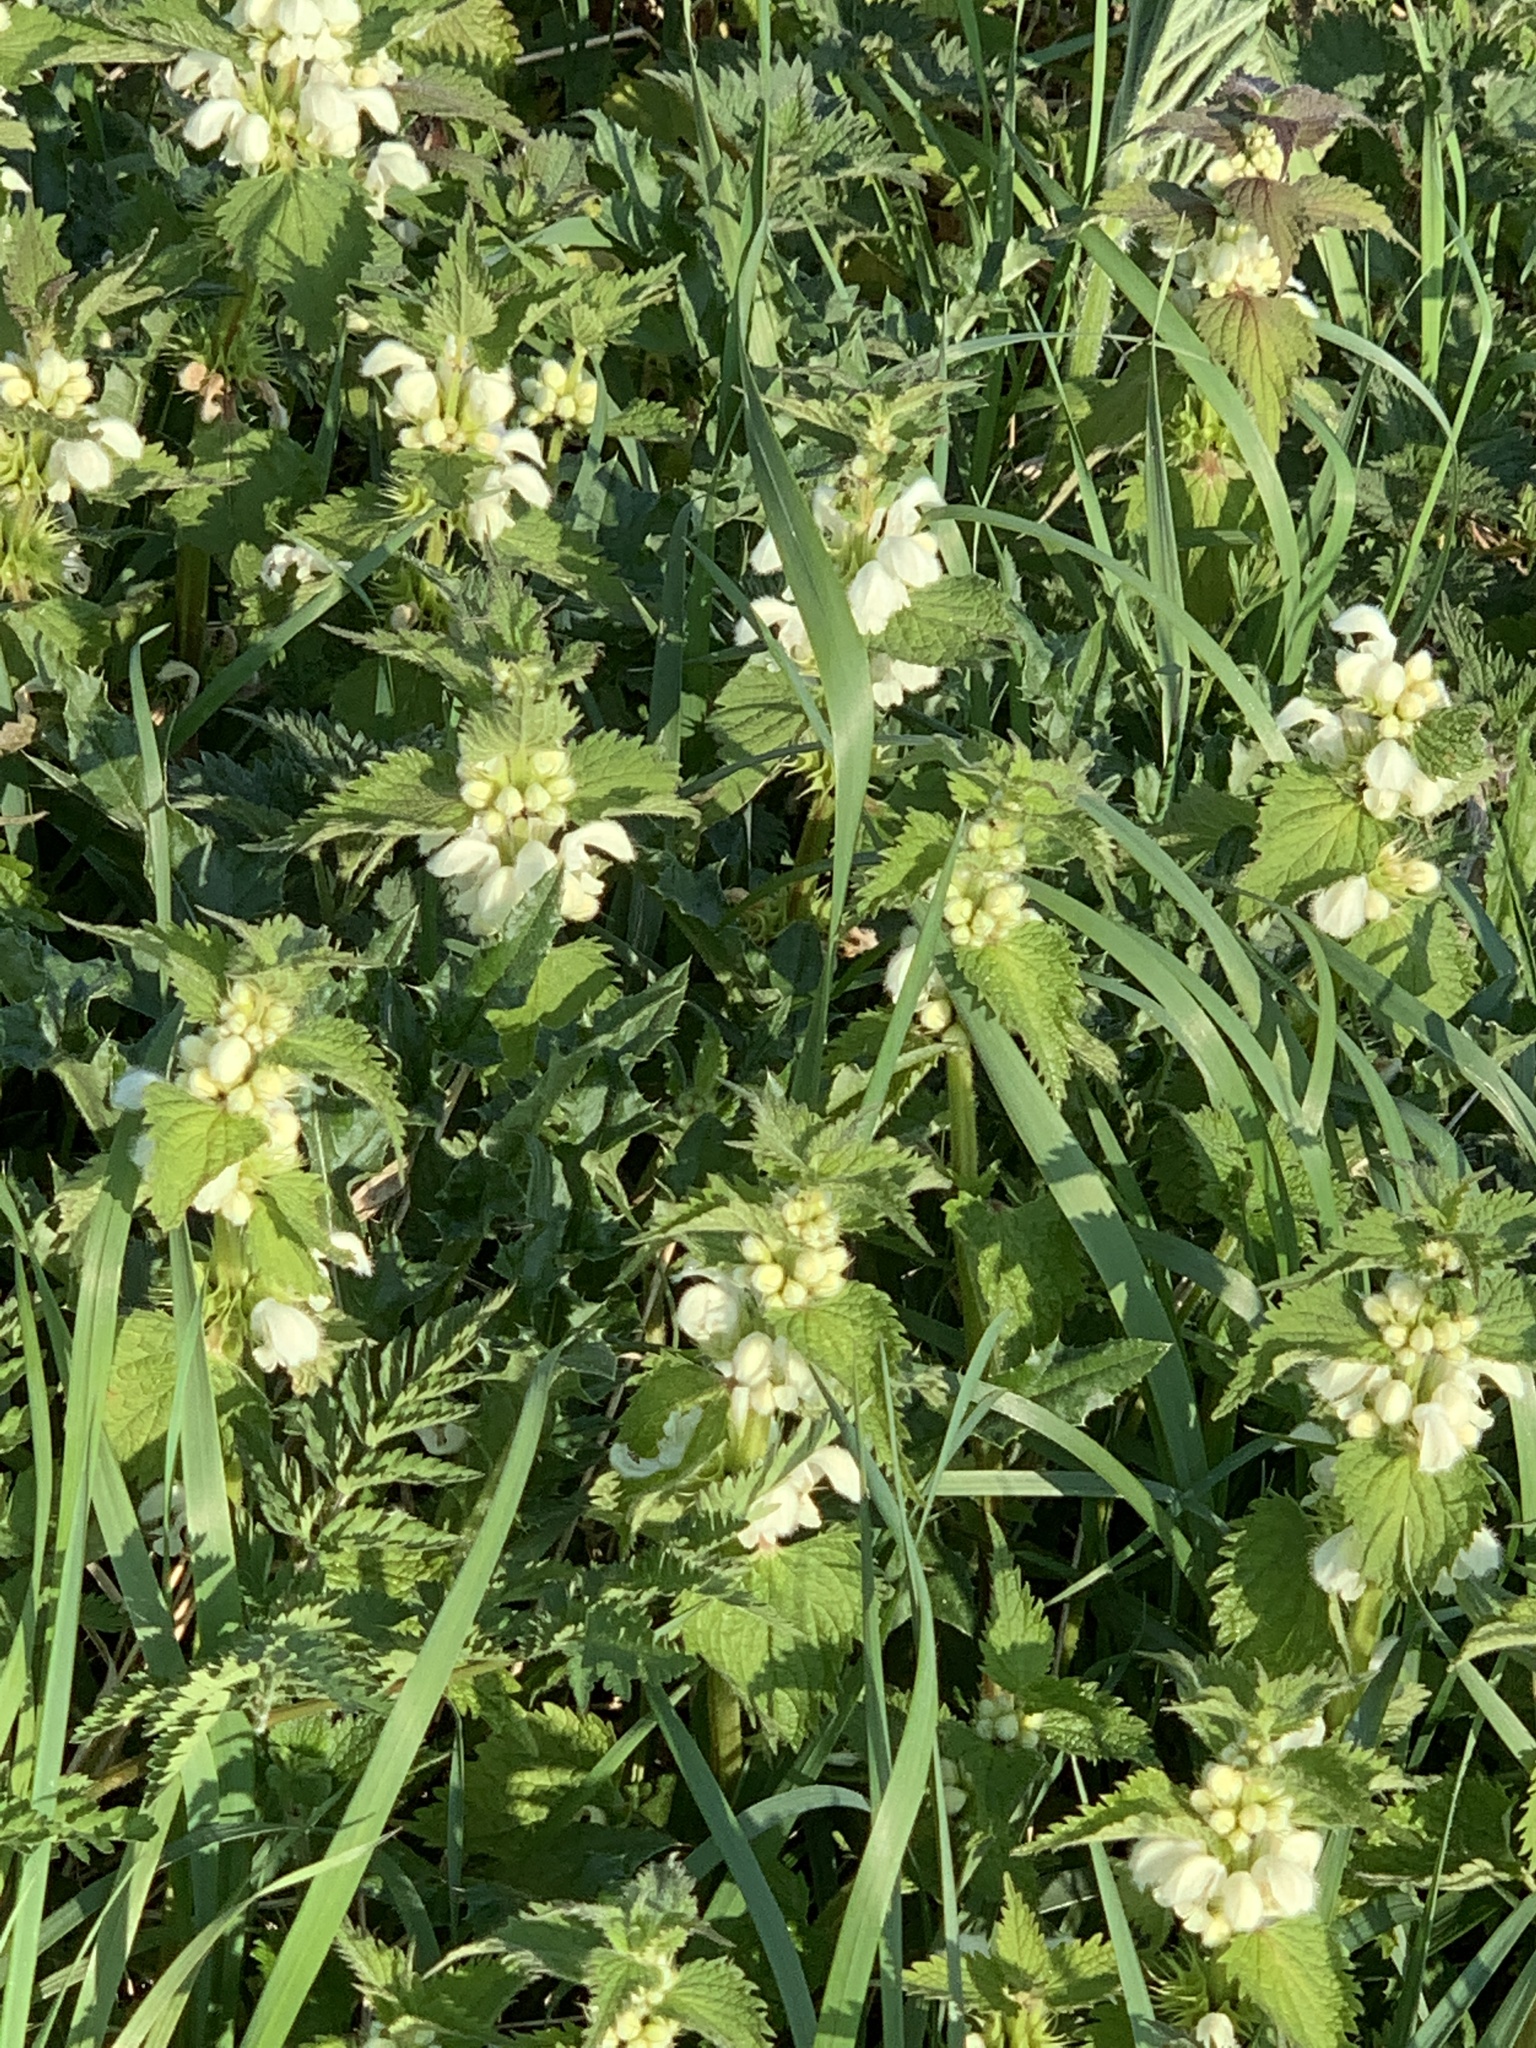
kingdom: Plantae
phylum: Tracheophyta
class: Magnoliopsida
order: Lamiales
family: Lamiaceae
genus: Lamium
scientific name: Lamium album
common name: White dead-nettle
